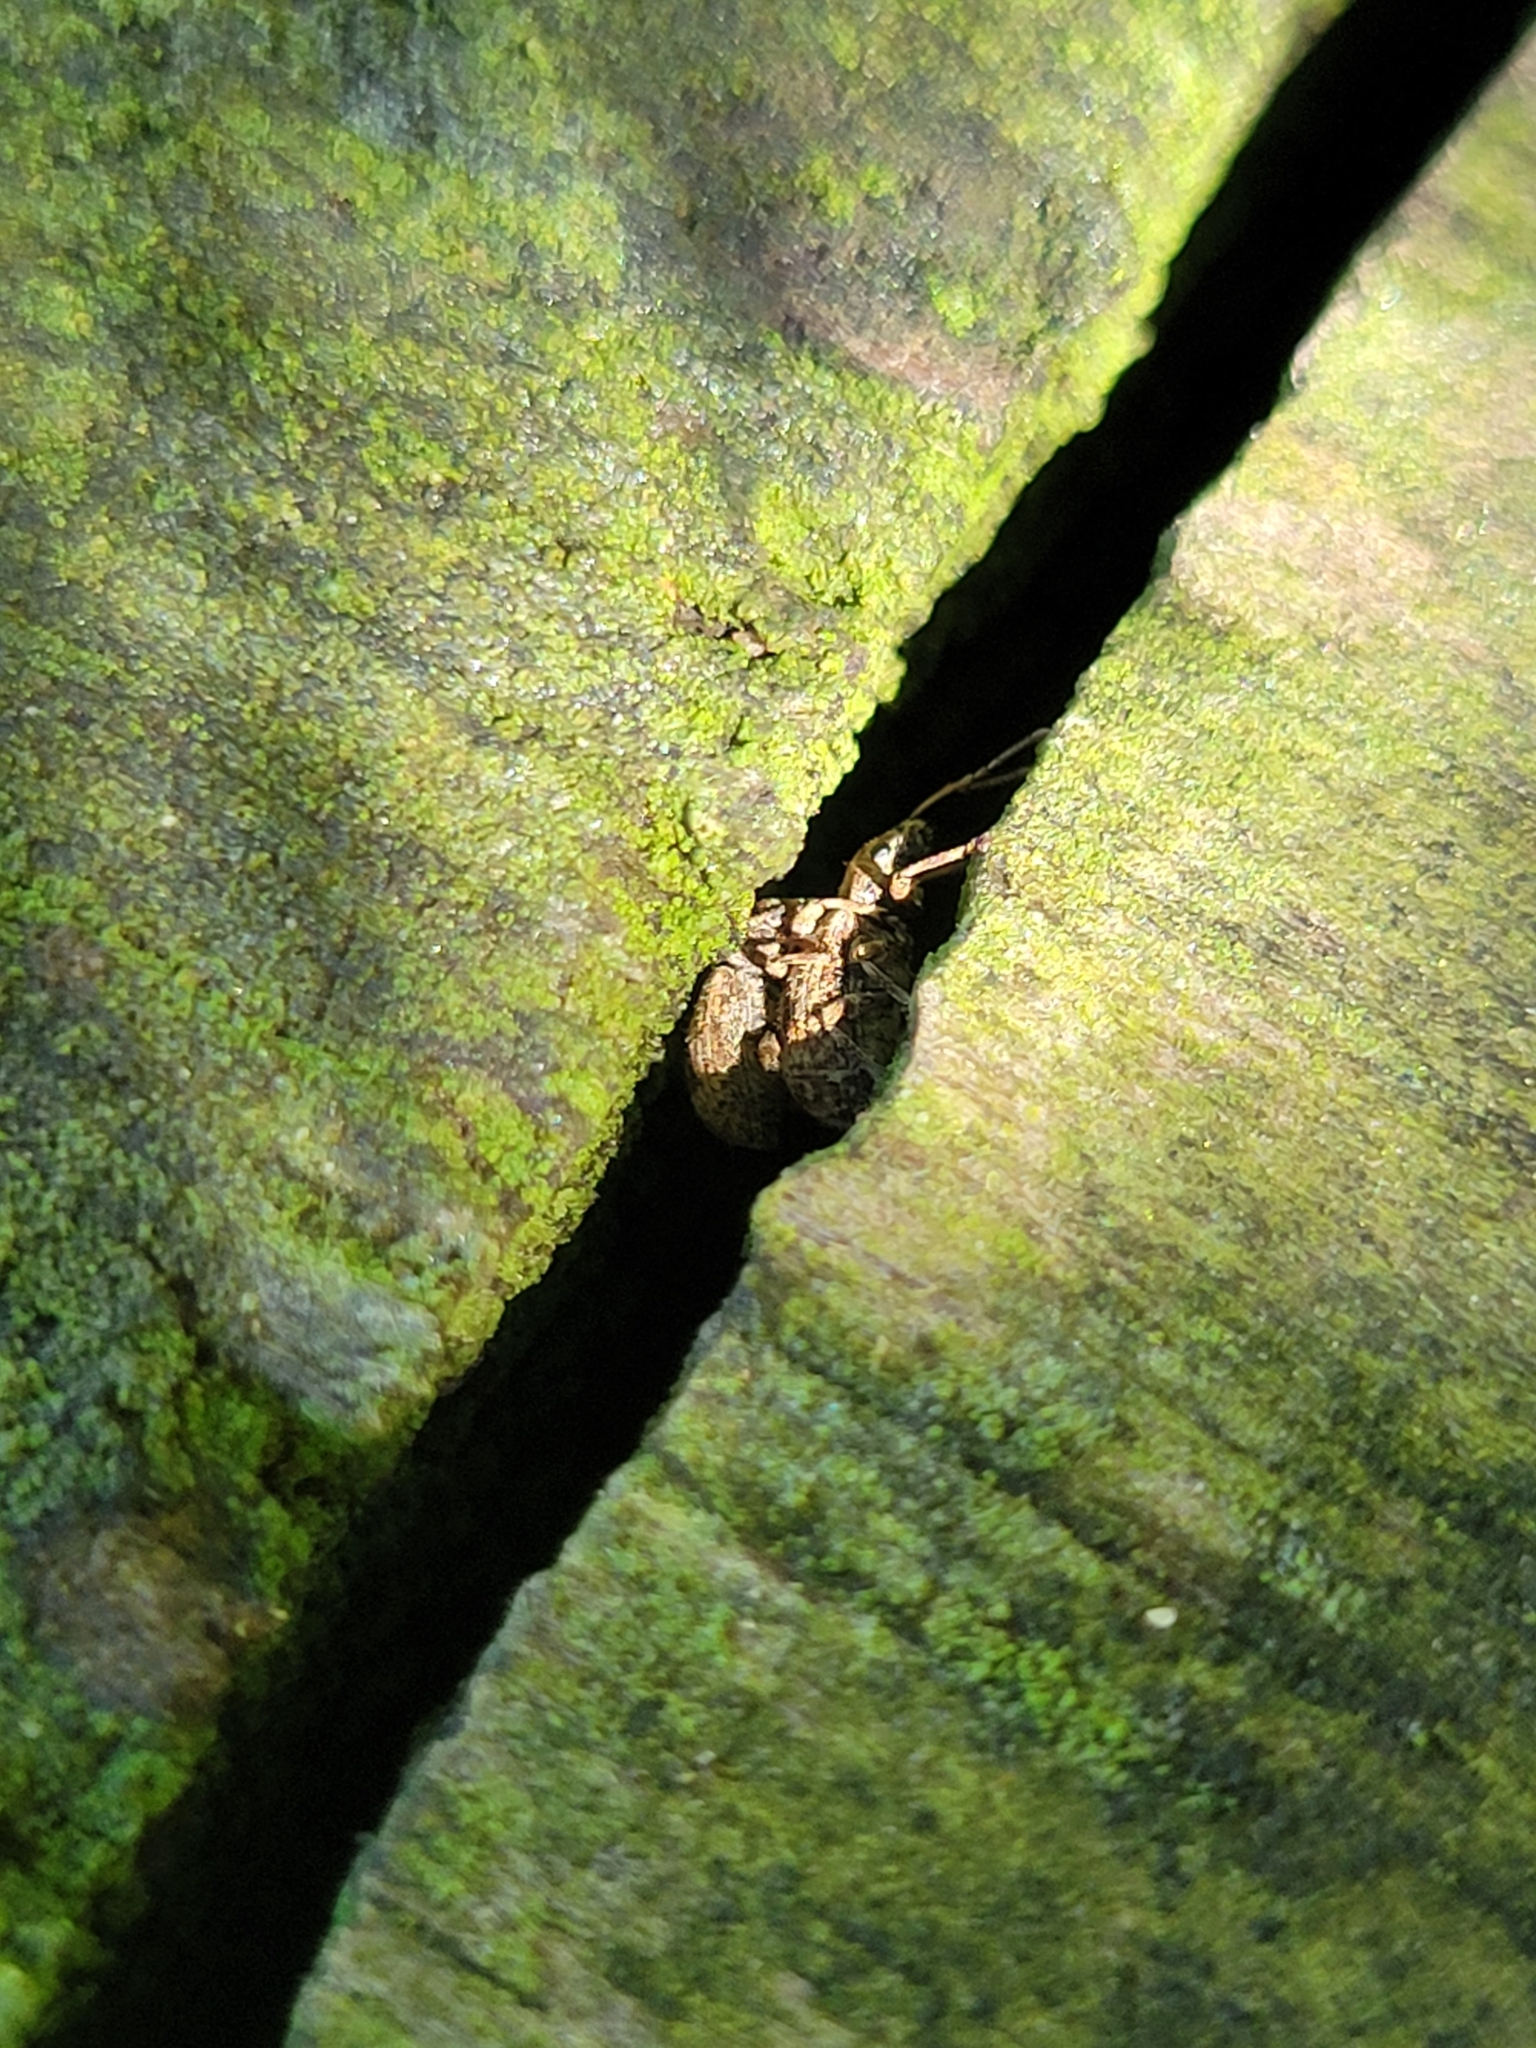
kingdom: Animalia
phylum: Arthropoda
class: Insecta
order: Coleoptera
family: Curculionidae
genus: Pseudoedophrys
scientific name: Pseudoedophrys hilleri
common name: Weevil
